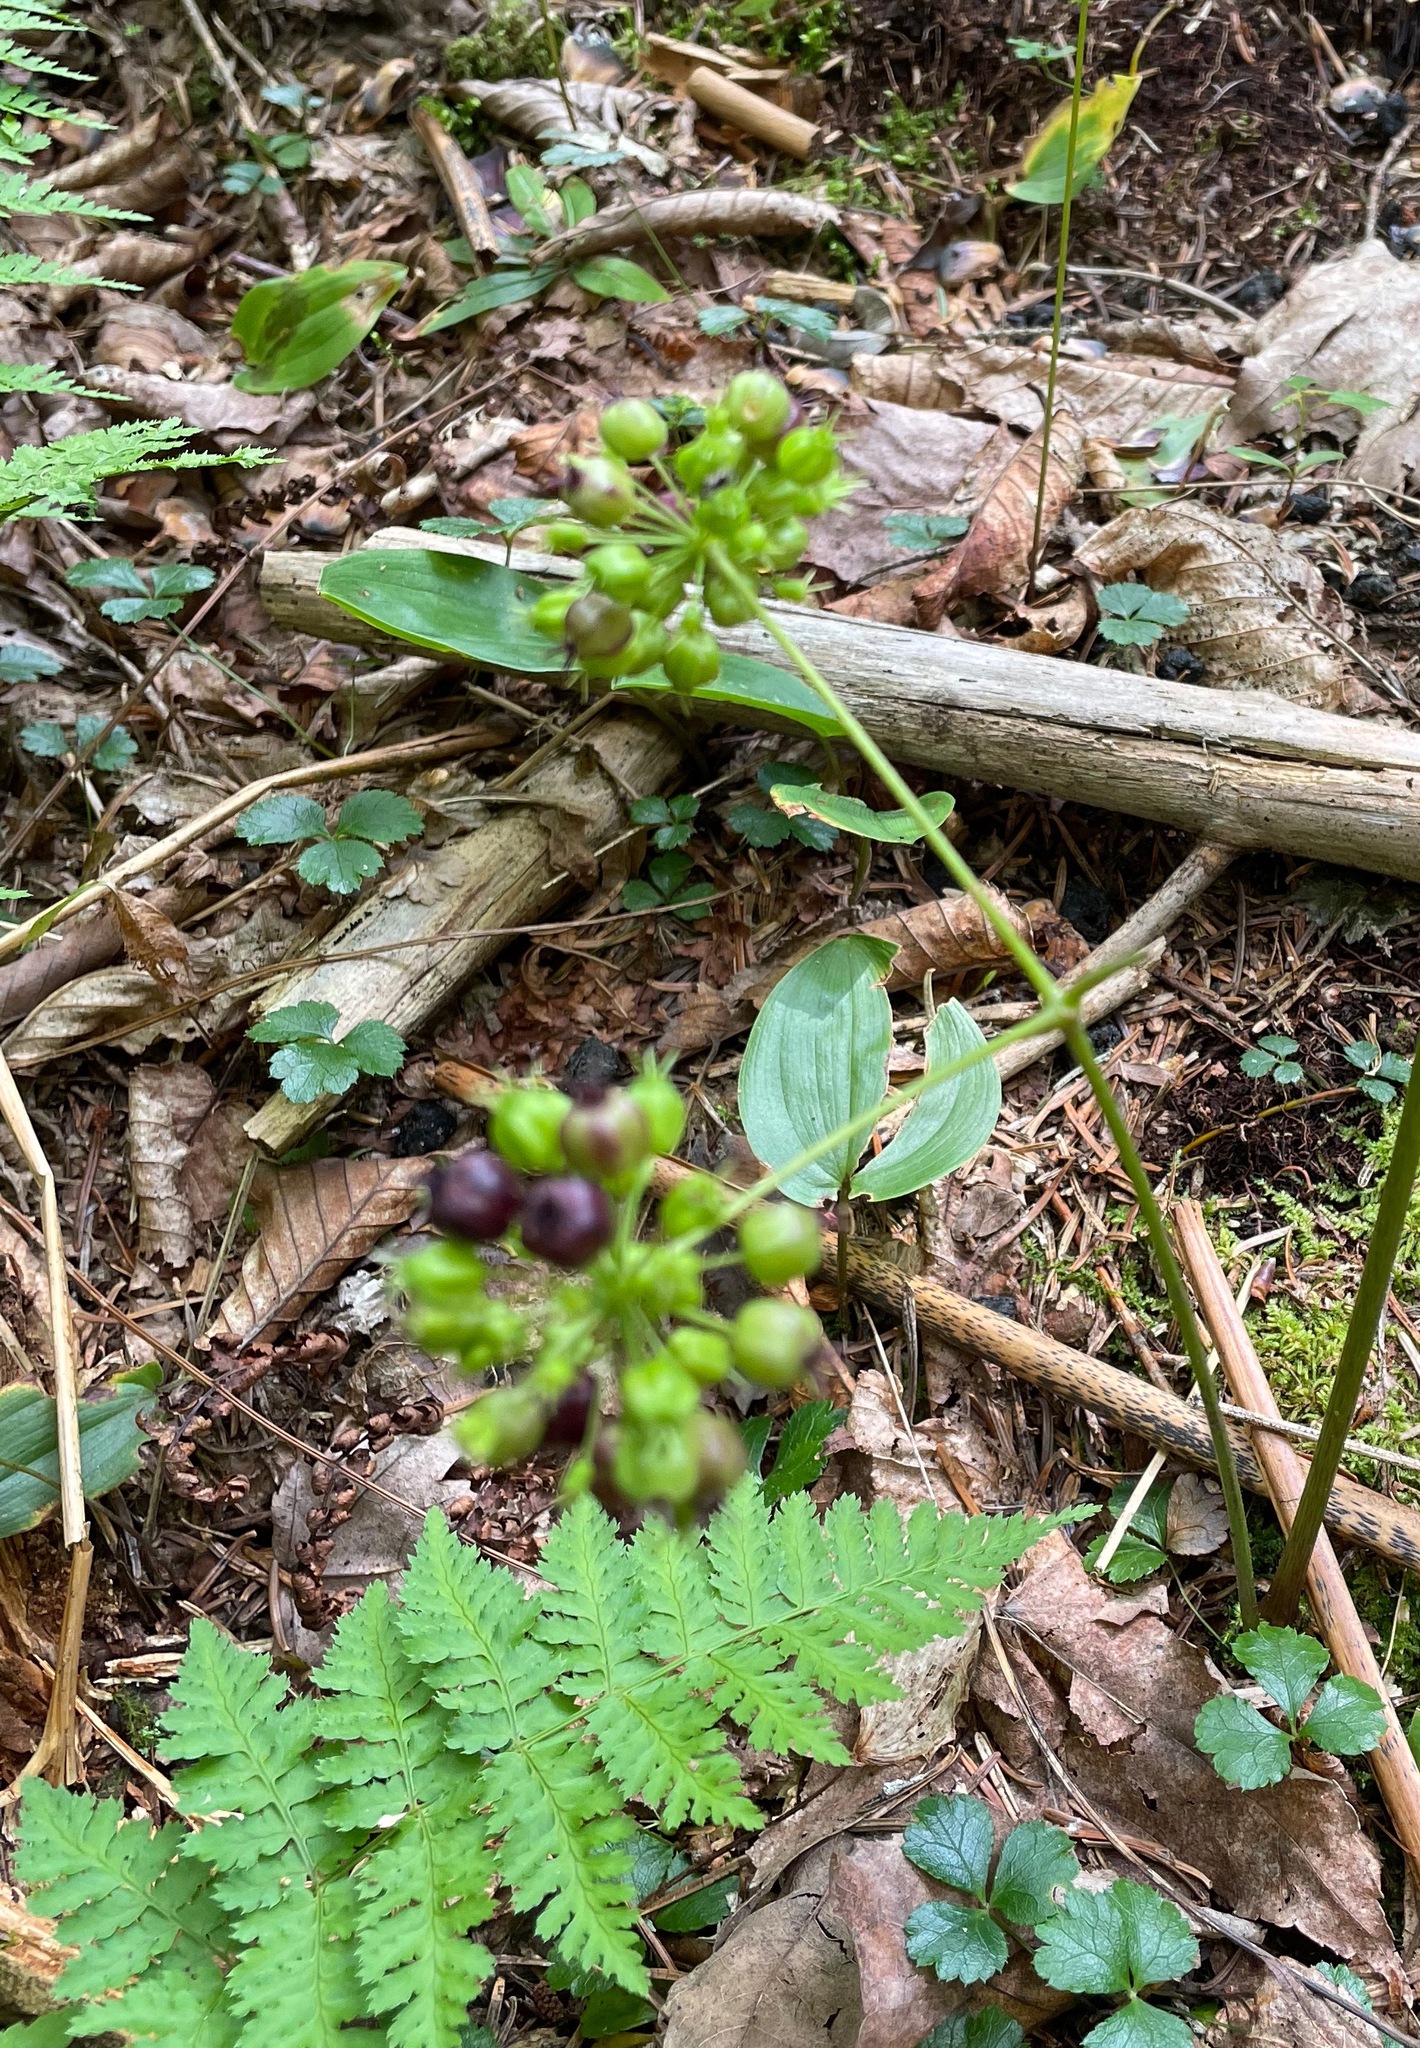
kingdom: Plantae
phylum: Tracheophyta
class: Magnoliopsida
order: Apiales
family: Araliaceae
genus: Aralia
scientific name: Aralia nudicaulis
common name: Wild sarsaparilla
